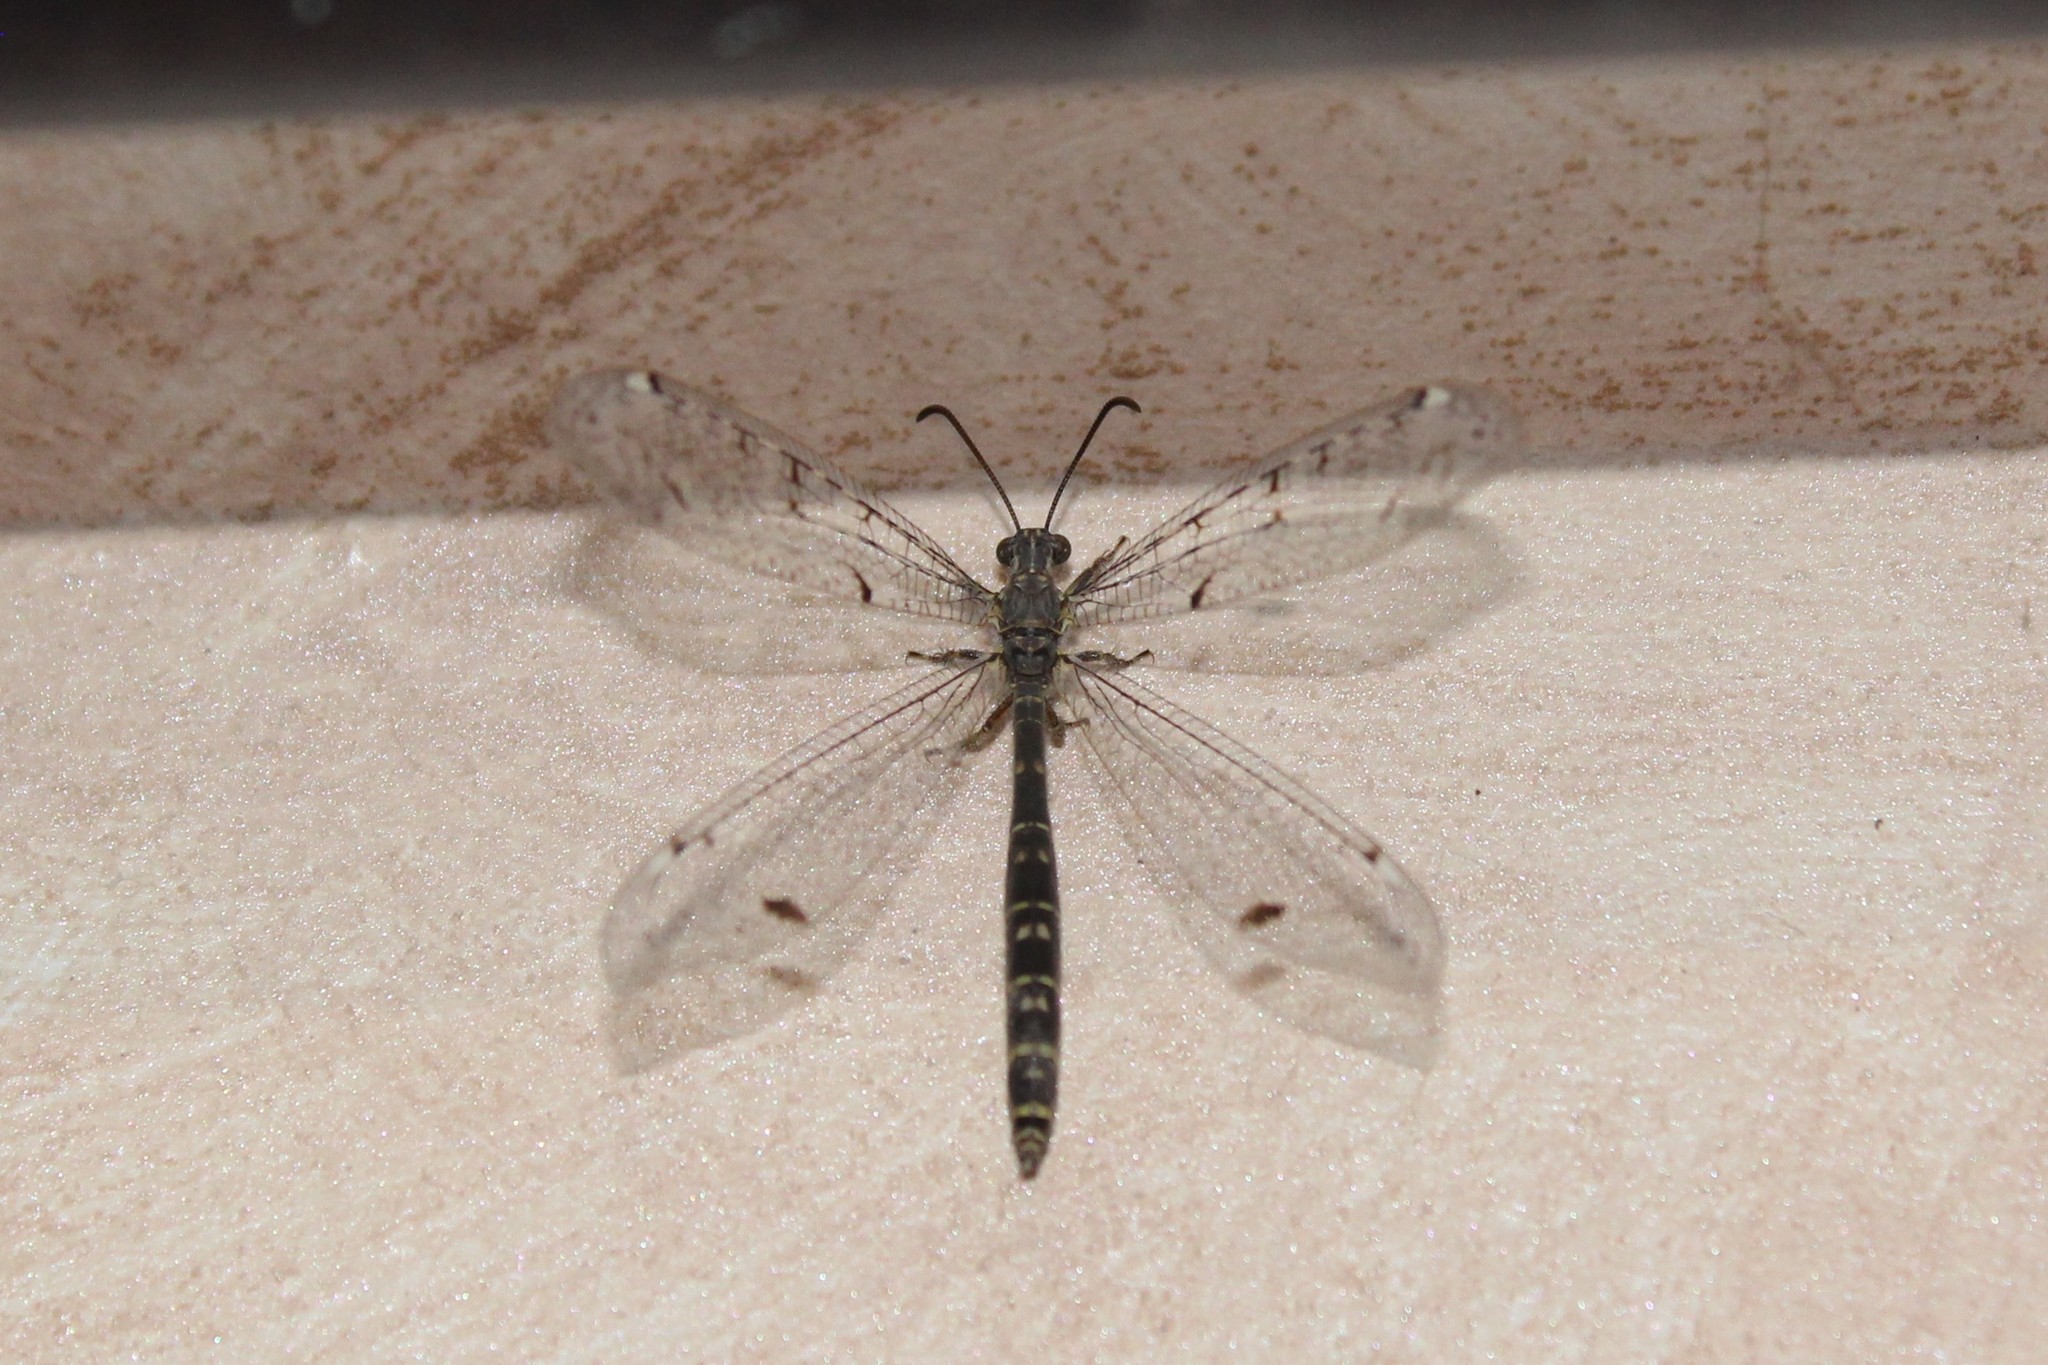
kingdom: Animalia
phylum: Arthropoda
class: Insecta
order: Neuroptera
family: Myrmeleontidae
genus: Distoleon
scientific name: Distoleon tetragrammicus
